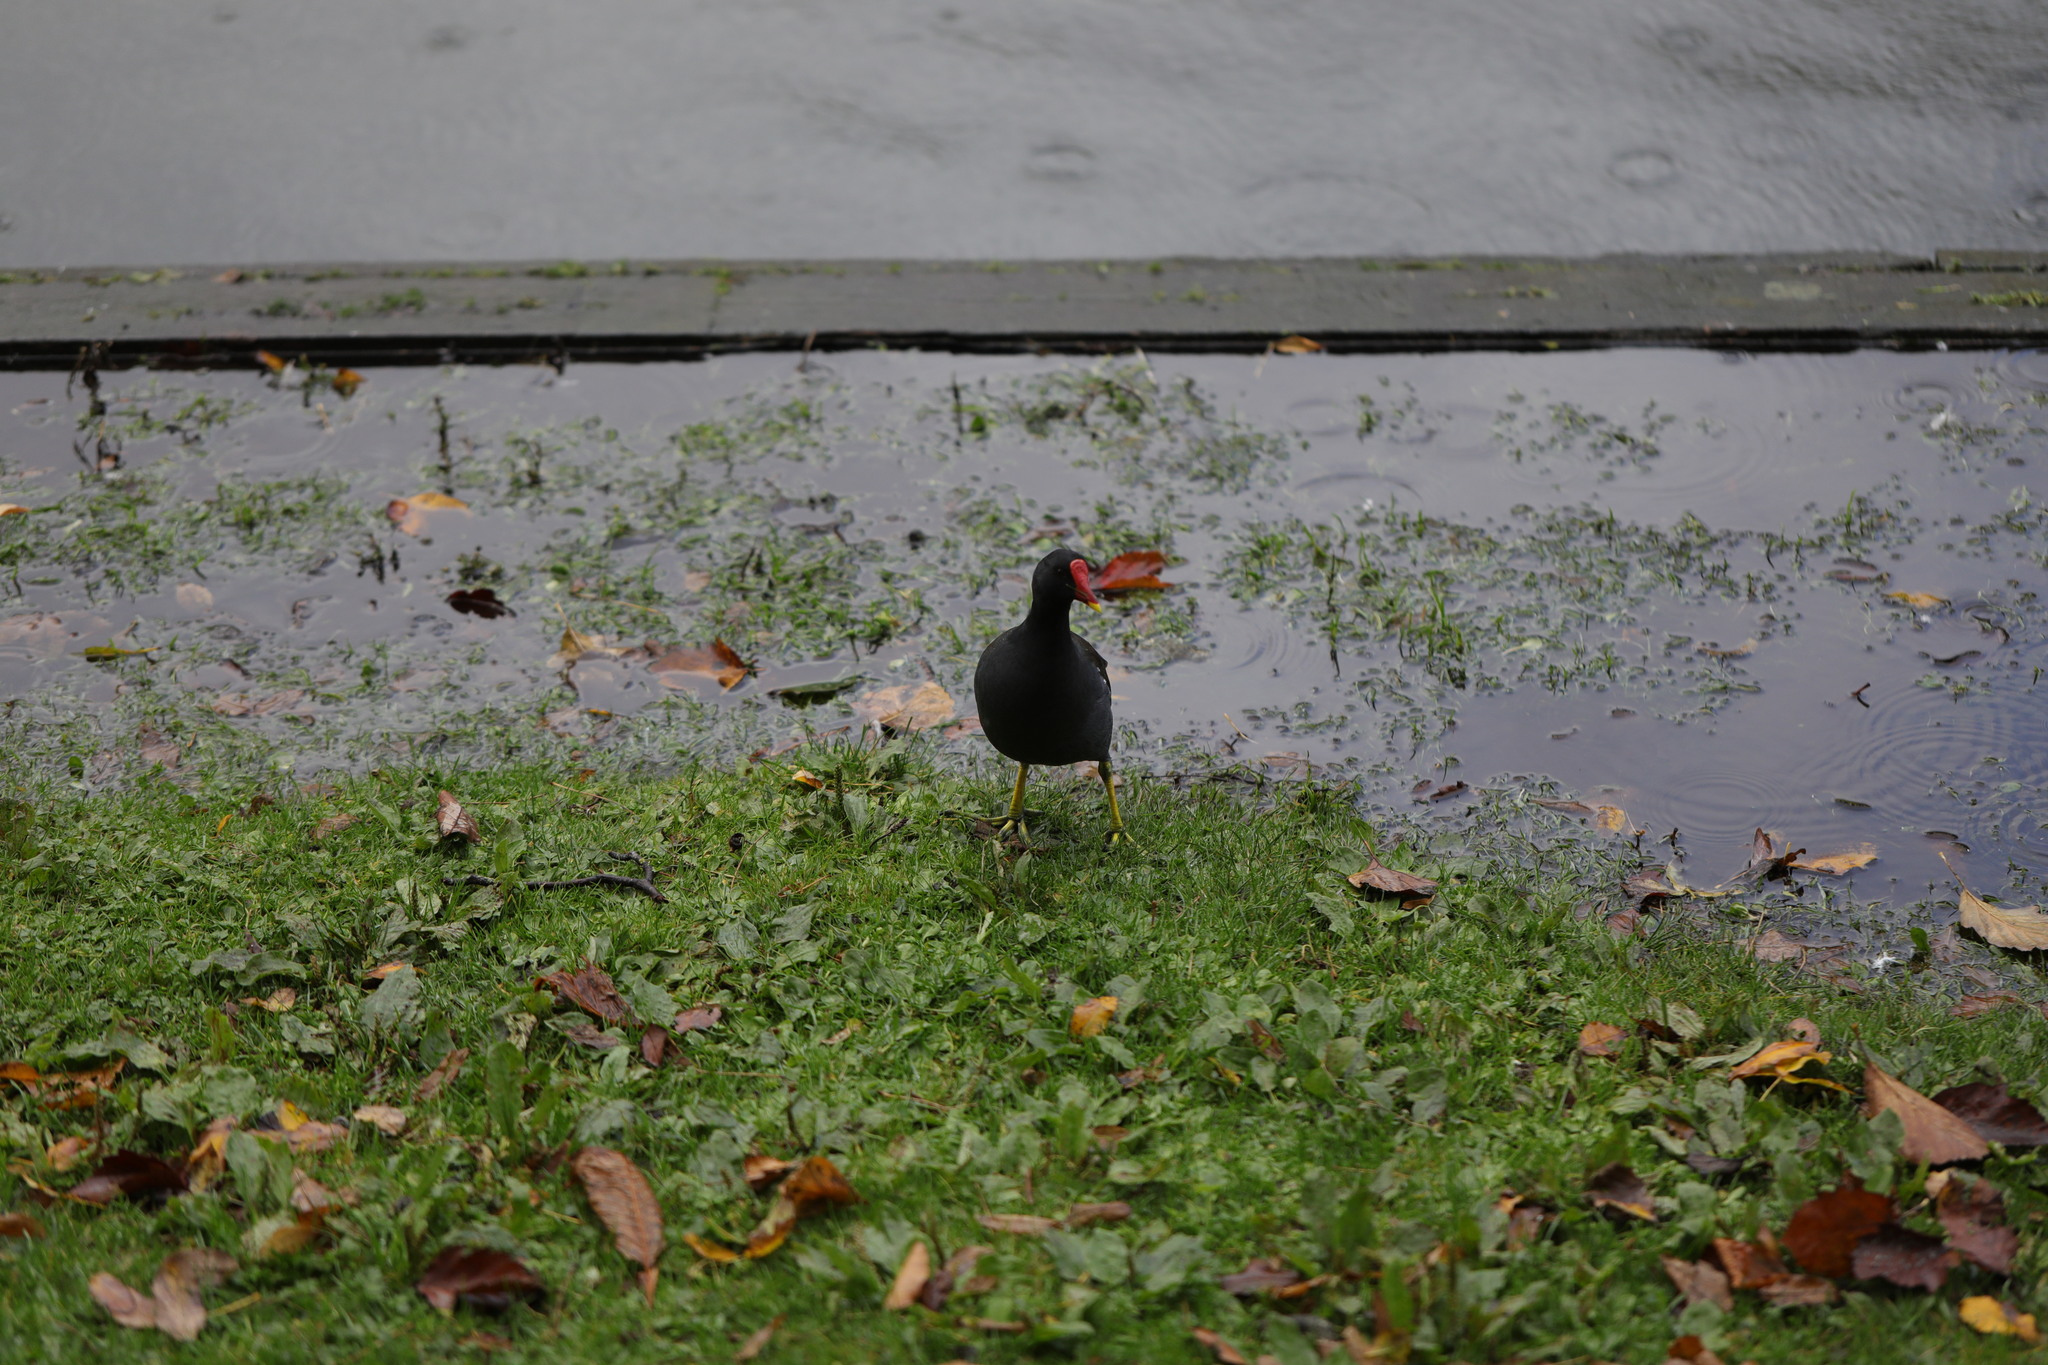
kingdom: Animalia
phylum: Chordata
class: Aves
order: Gruiformes
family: Rallidae
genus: Gallinula
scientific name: Gallinula chloropus
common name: Common moorhen
